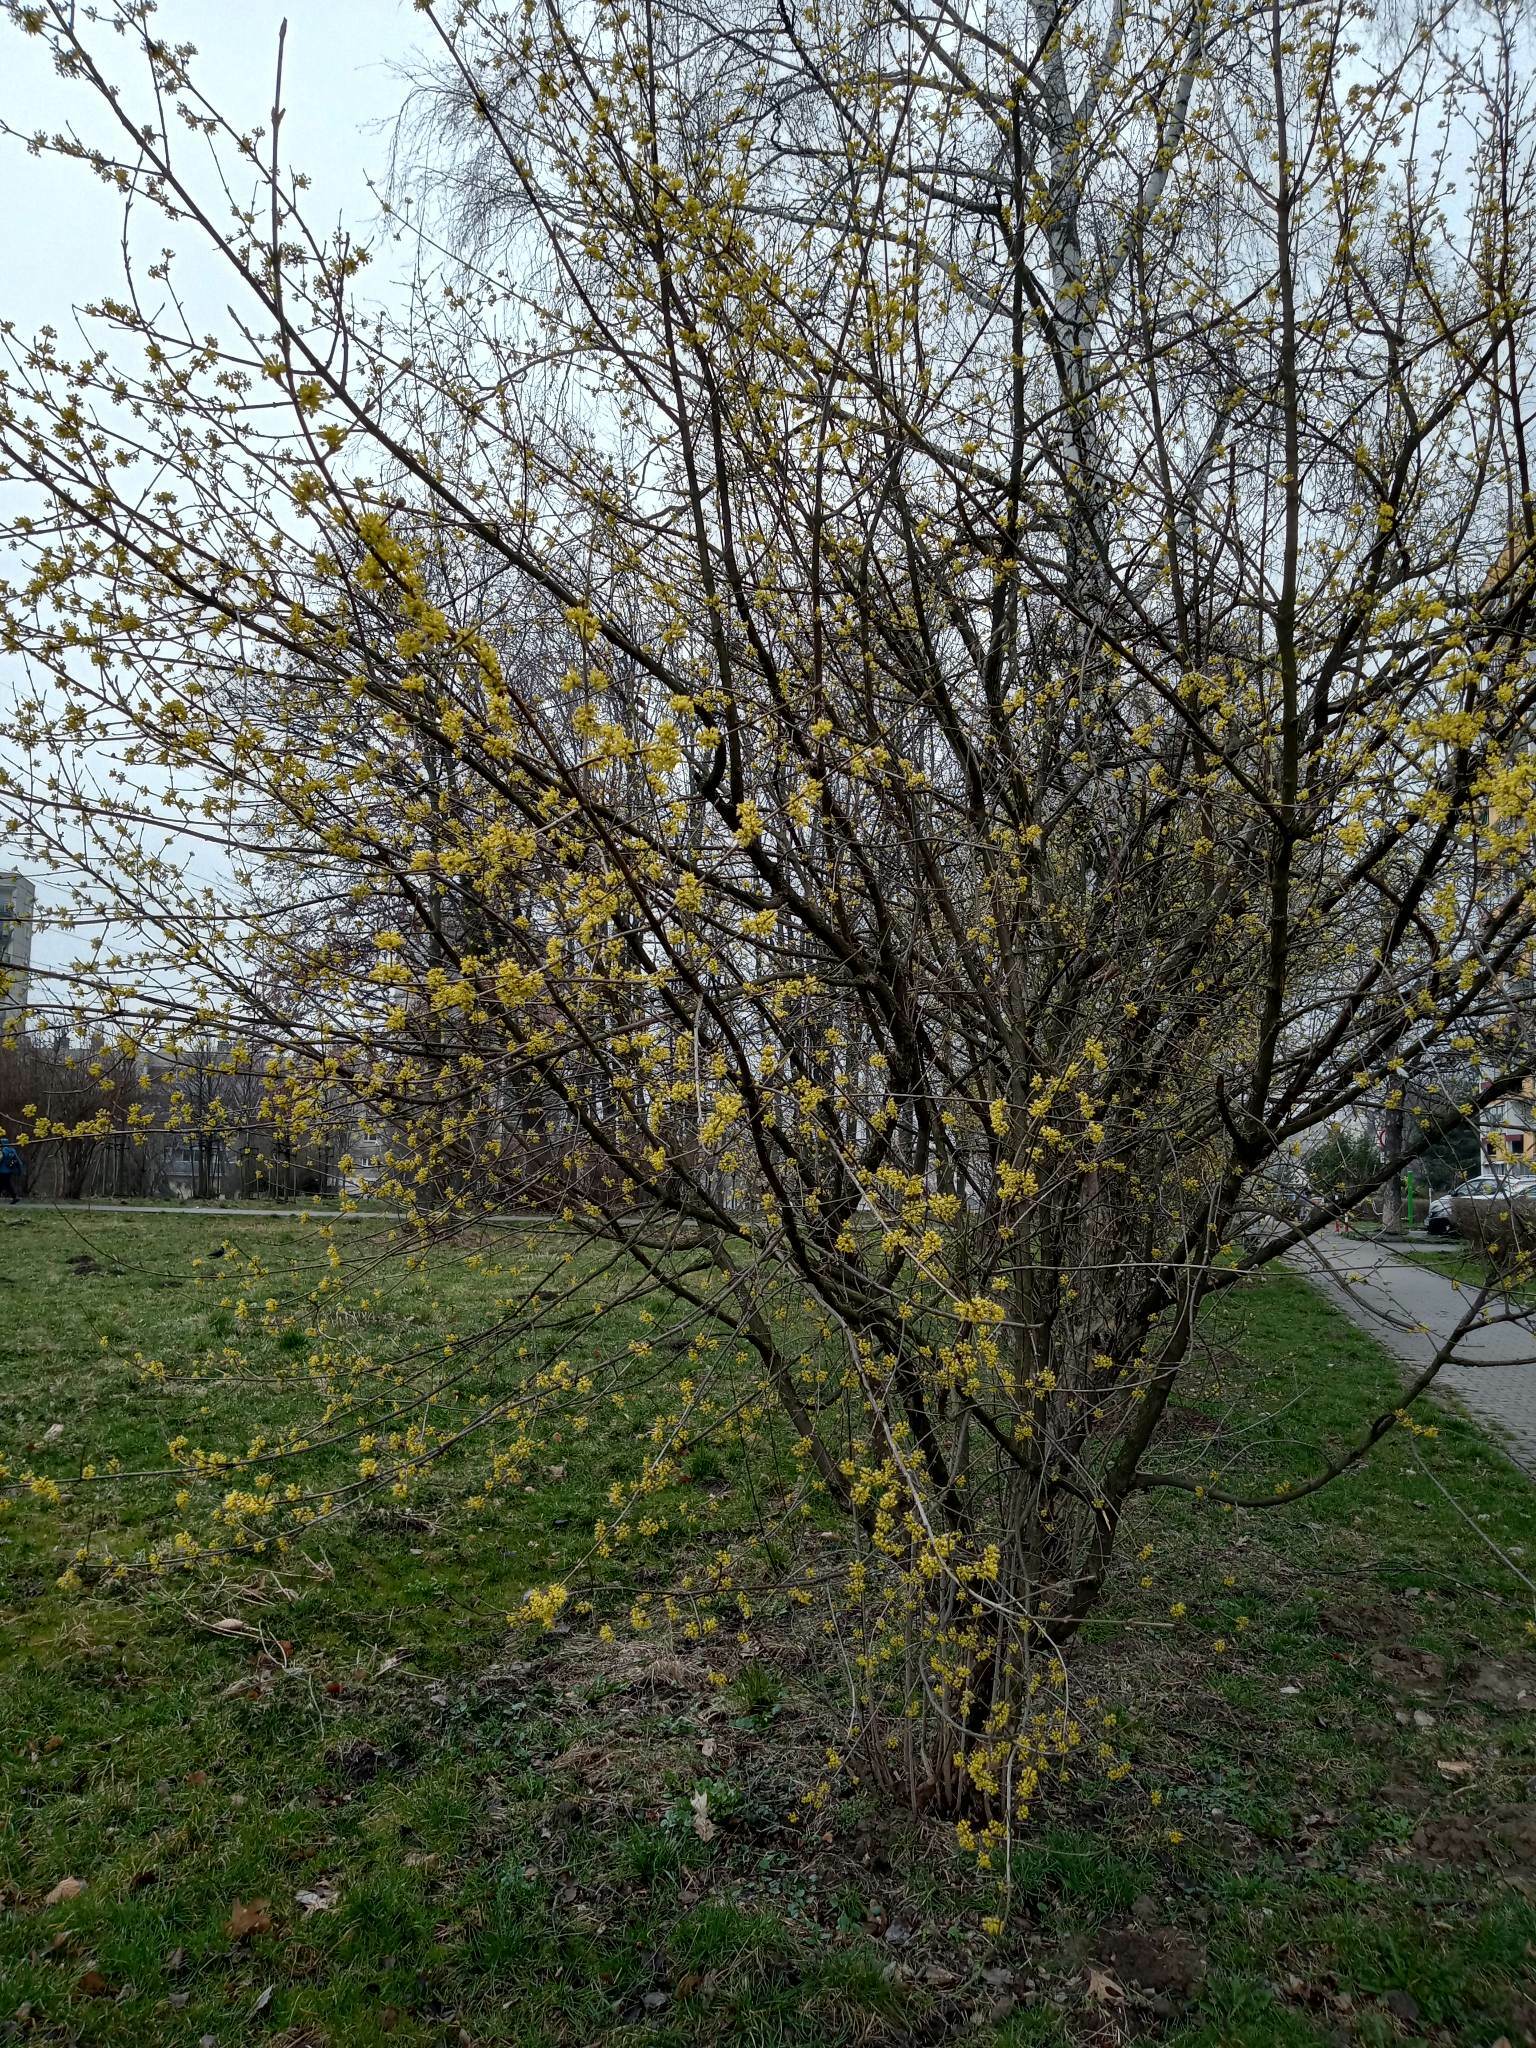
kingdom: Plantae
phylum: Tracheophyta
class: Magnoliopsida
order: Cornales
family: Cornaceae
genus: Cornus
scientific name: Cornus mas
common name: Cornelian-cherry
